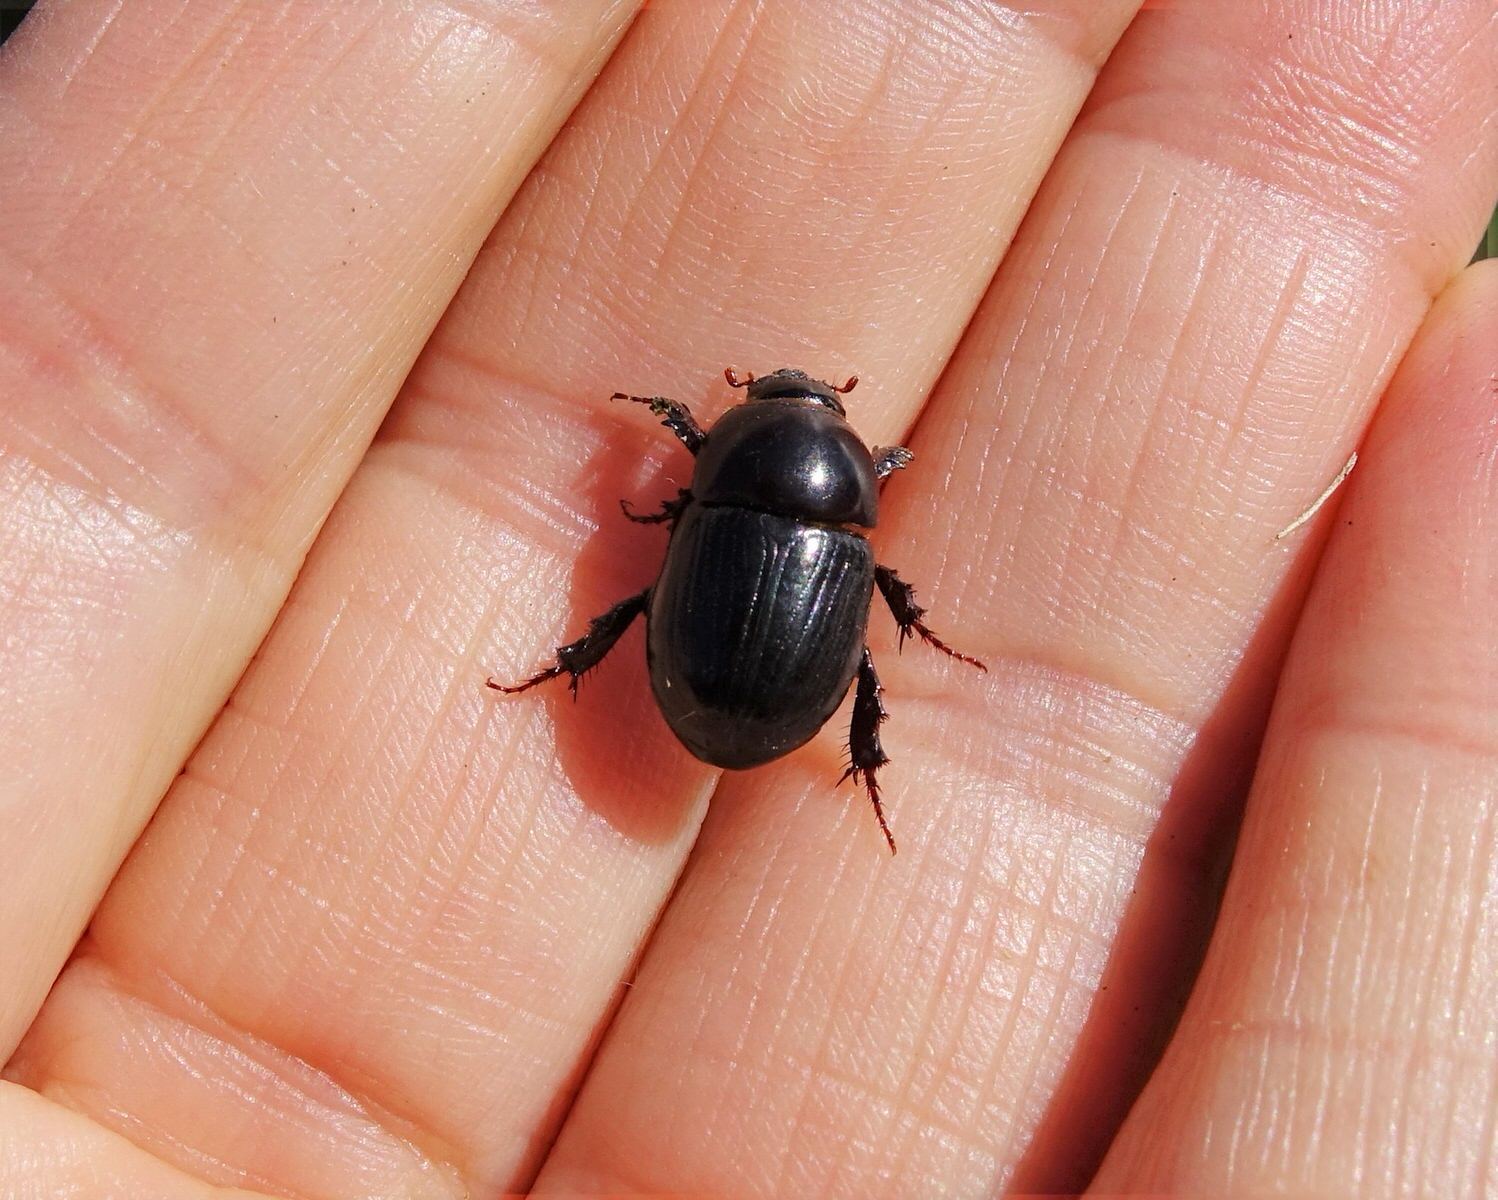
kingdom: Animalia
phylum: Arthropoda
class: Insecta
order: Coleoptera
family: Scarabaeidae
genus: Heteronychus
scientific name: Heteronychus arator
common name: African black beetle
